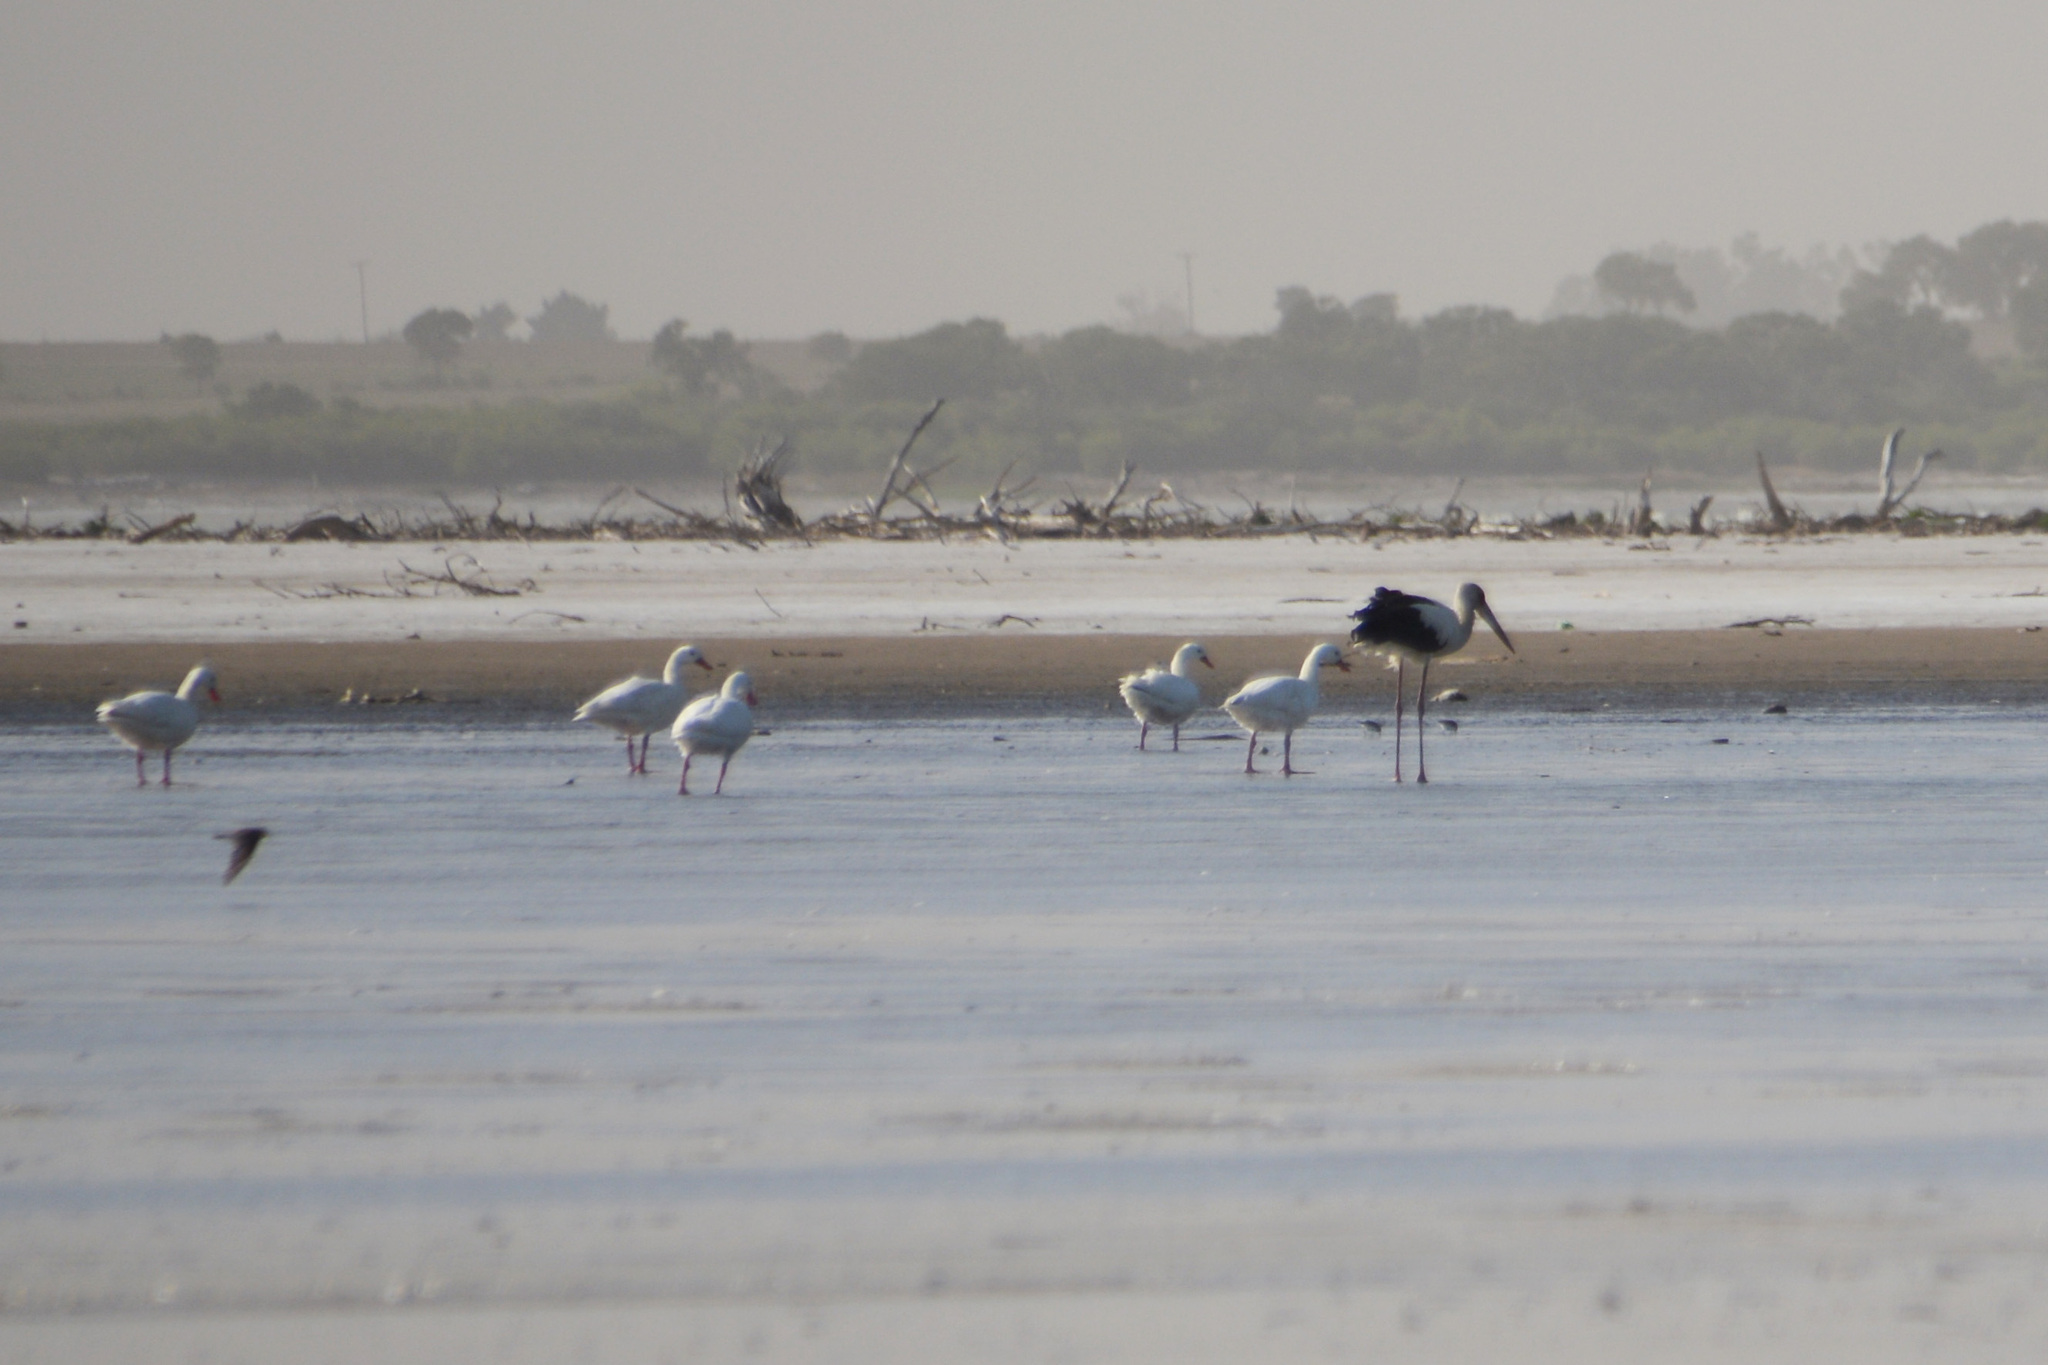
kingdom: Animalia
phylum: Chordata
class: Aves
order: Anseriformes
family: Anatidae
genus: Coscoroba
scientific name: Coscoroba coscoroba
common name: Coscoroba swan
